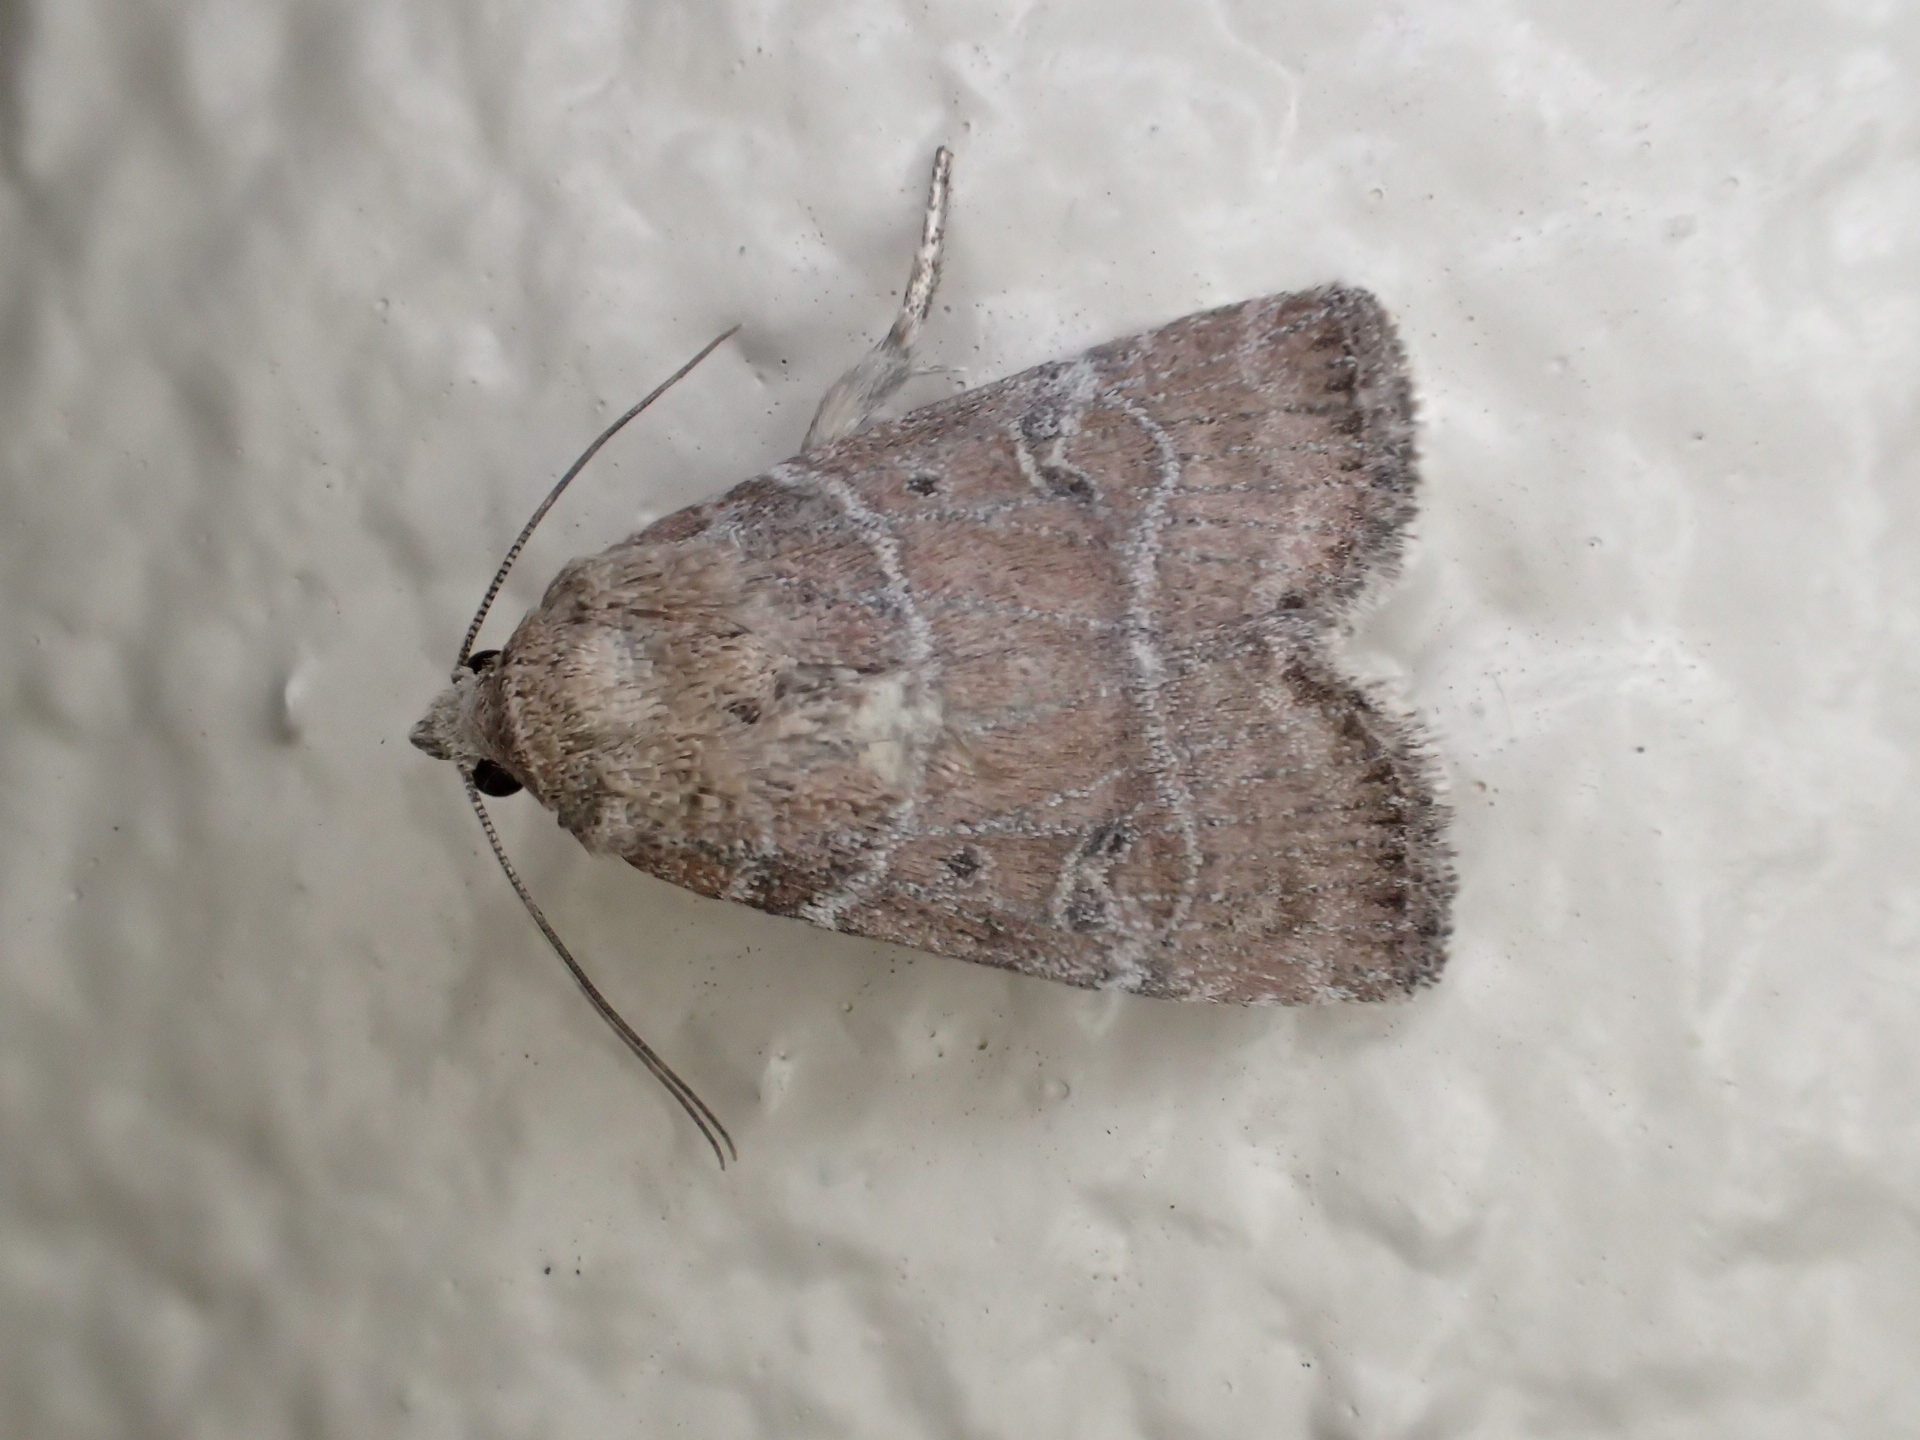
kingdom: Animalia
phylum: Arthropoda
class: Insecta
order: Lepidoptera
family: Noctuidae
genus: Elaphria
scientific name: Elaphria grata
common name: Grateful midget moth
